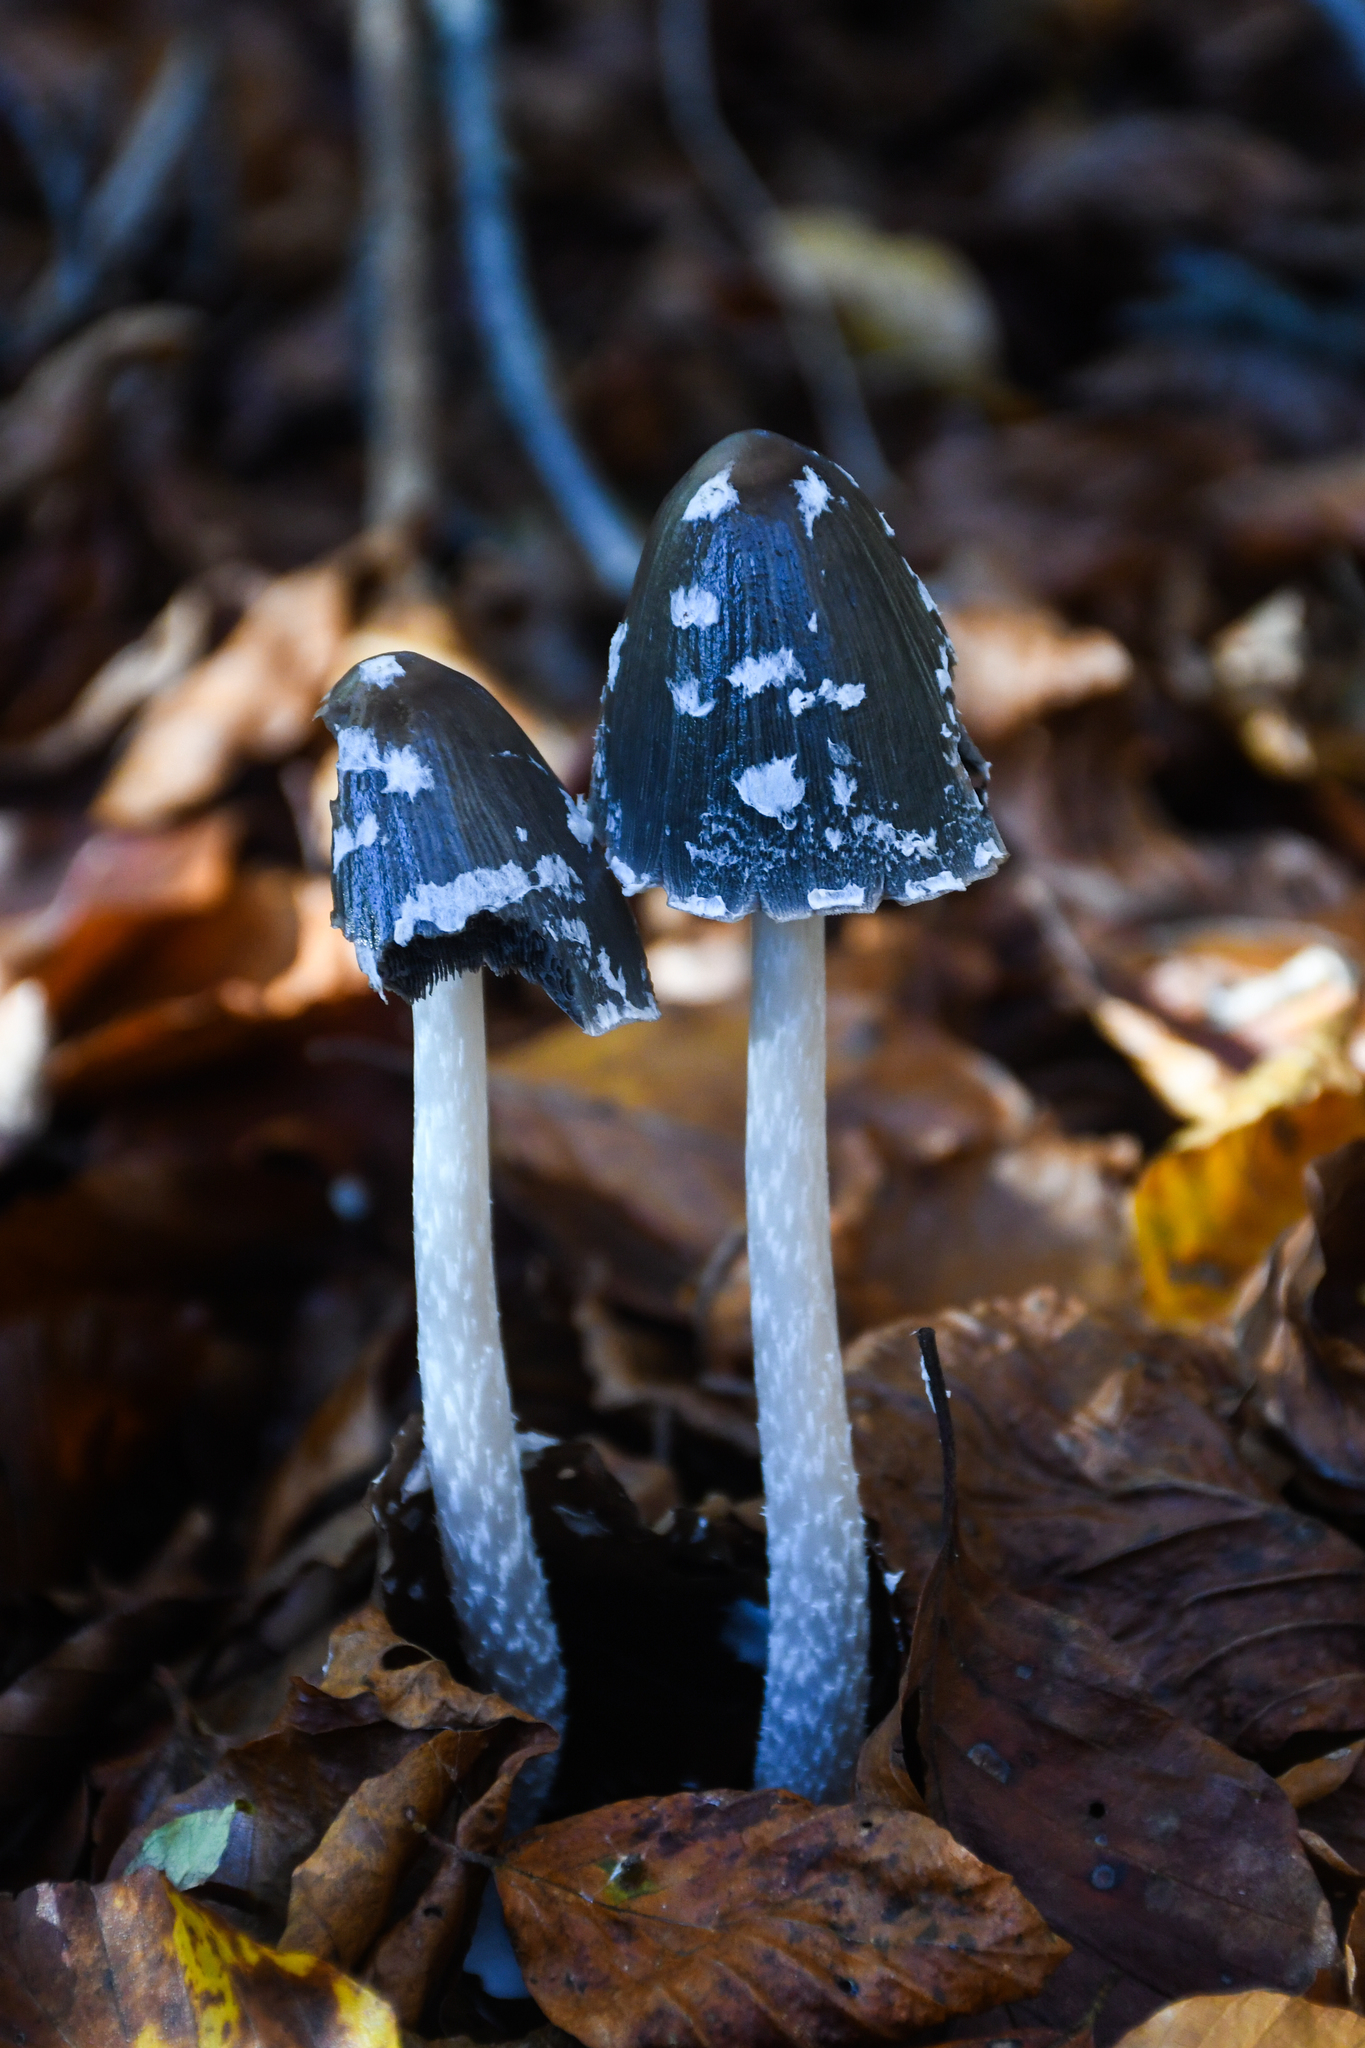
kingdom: Fungi
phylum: Basidiomycota
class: Agaricomycetes
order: Agaricales
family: Psathyrellaceae
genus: Coprinopsis
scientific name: Coprinopsis picacea
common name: Magpie inkcap
